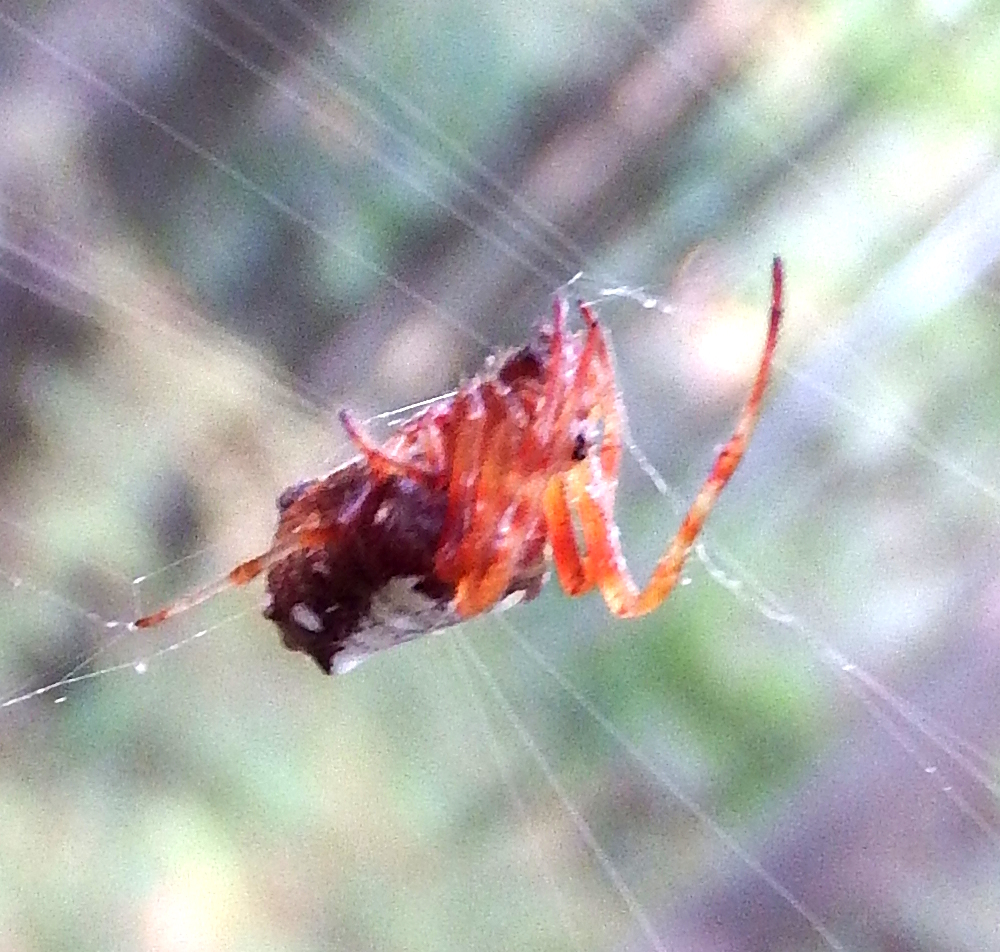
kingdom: Animalia
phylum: Arthropoda
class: Arachnida
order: Araneae
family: Araneidae
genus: Verrucosa
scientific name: Verrucosa arenata
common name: Orb weavers
